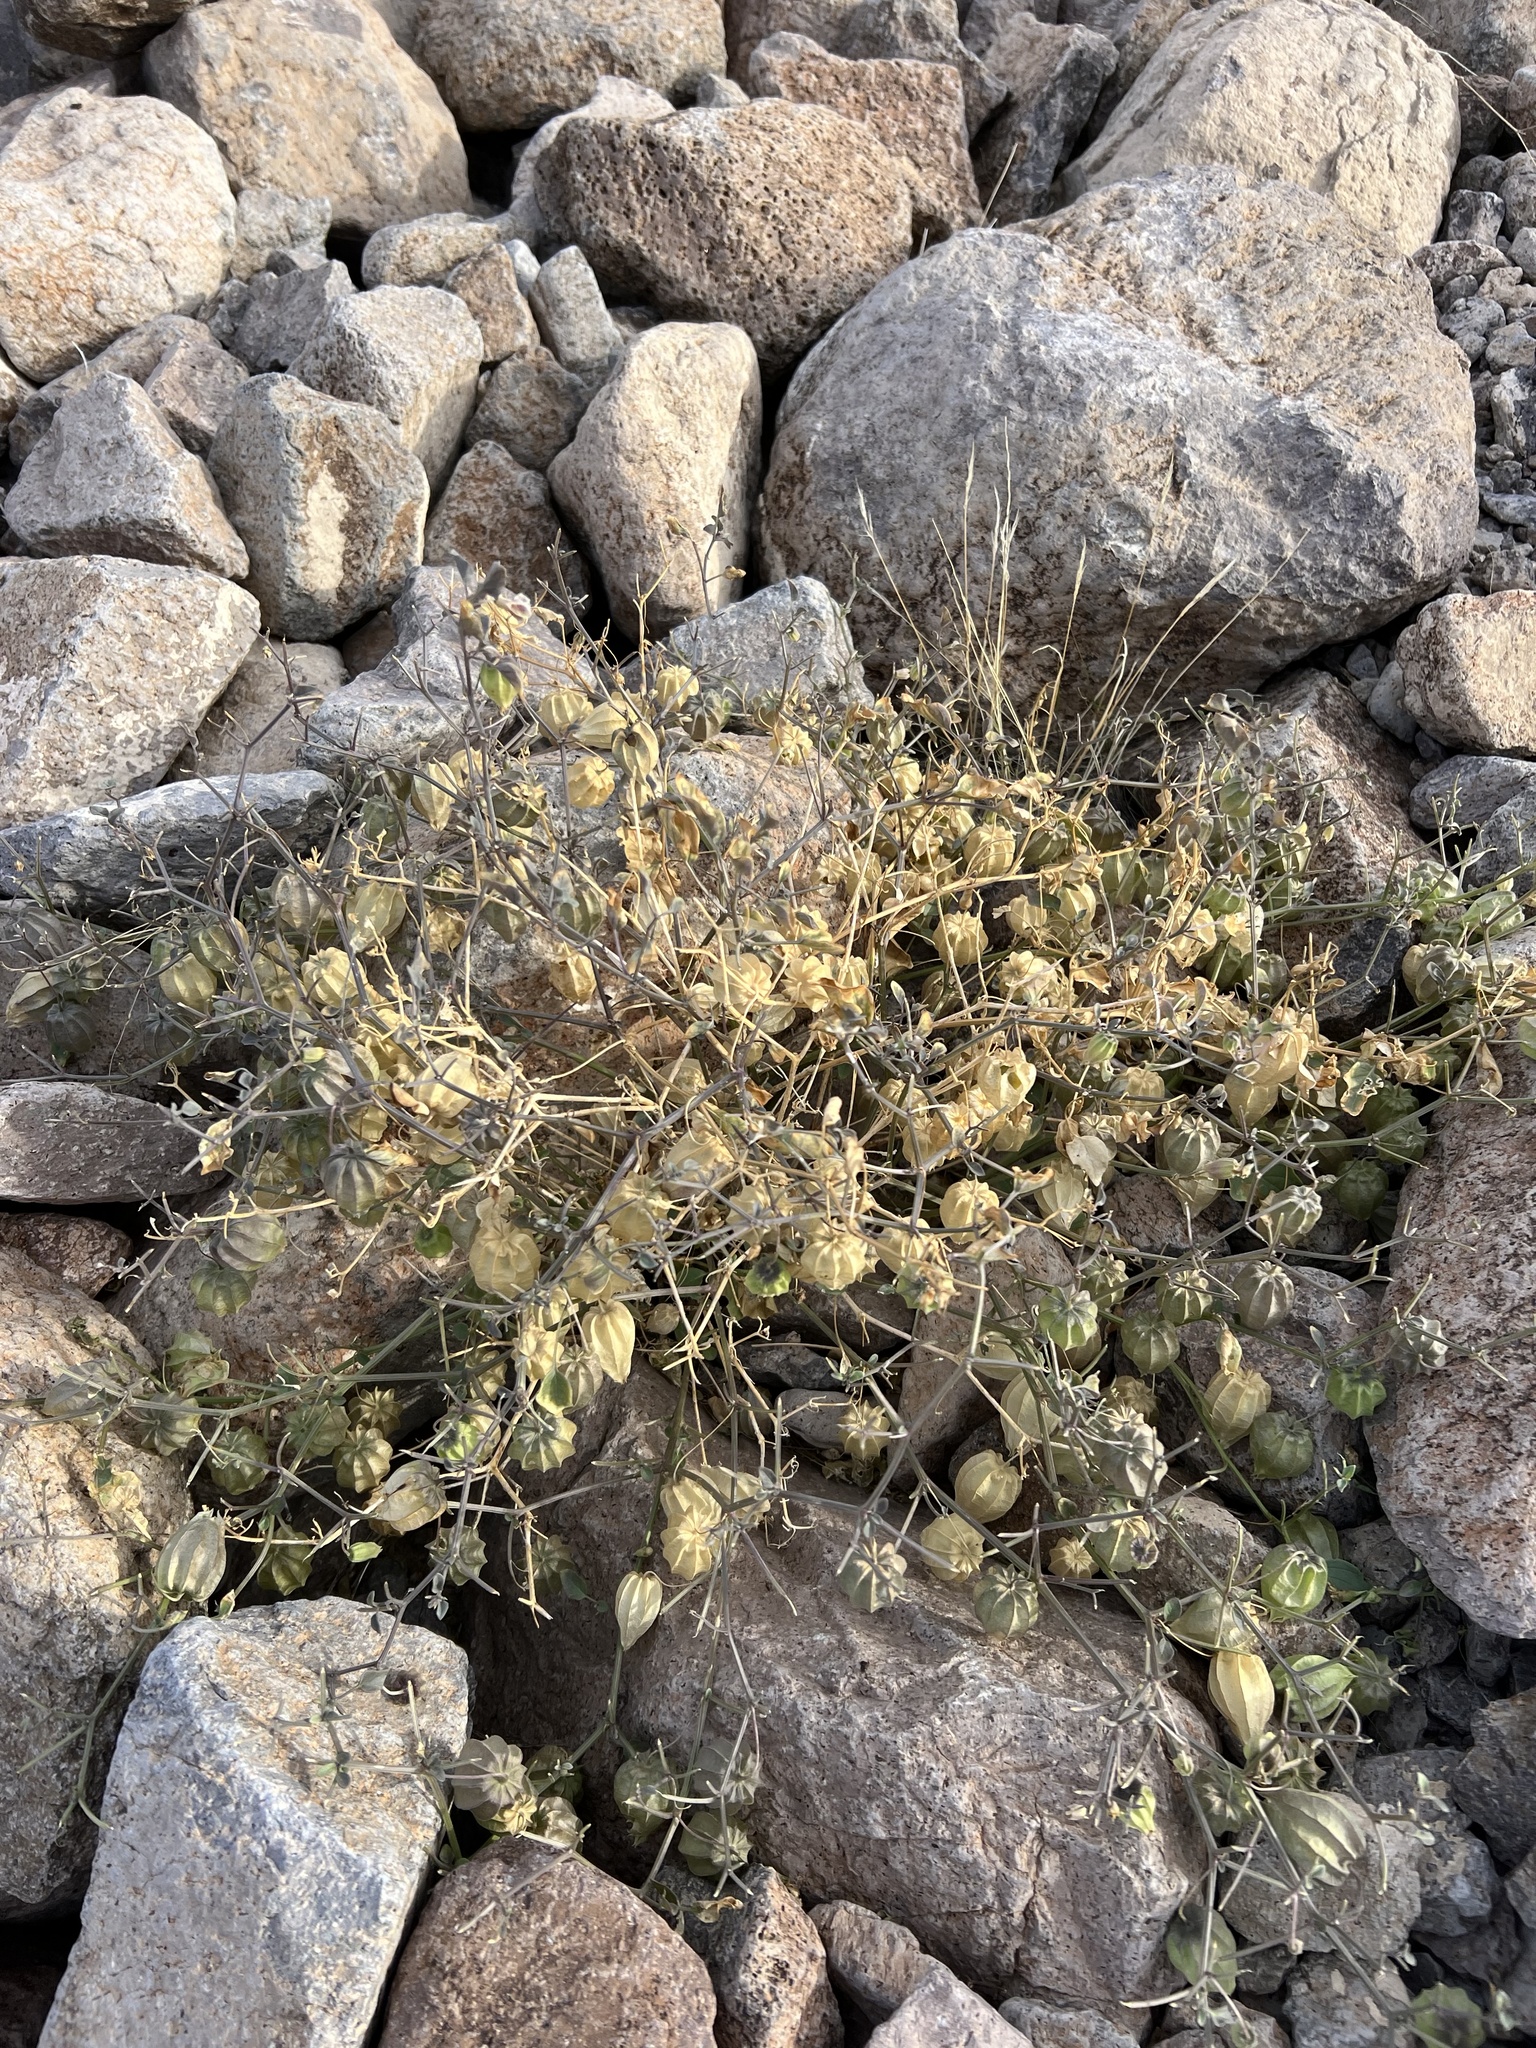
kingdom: Plantae
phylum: Tracheophyta
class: Magnoliopsida
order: Solanales
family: Solanaceae
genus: Physalis
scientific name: Physalis crassifolia
